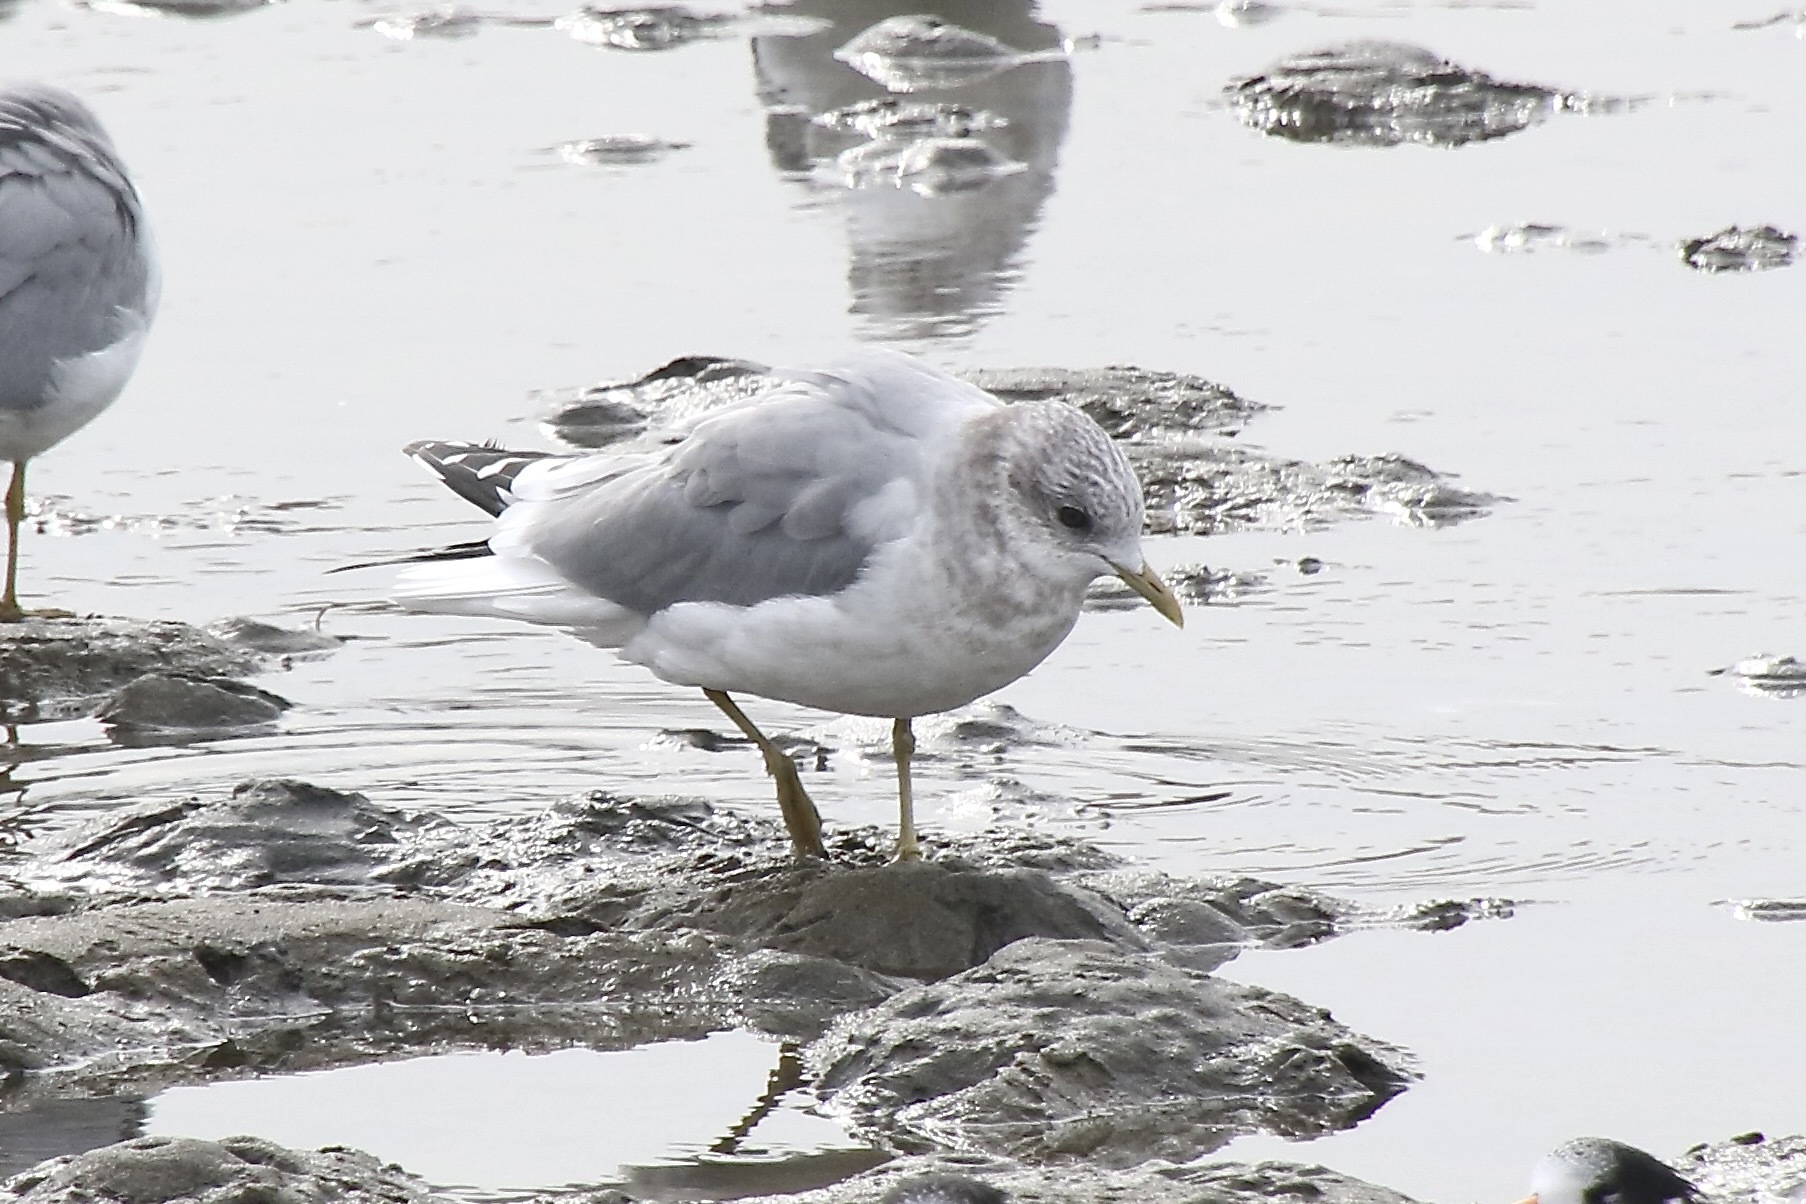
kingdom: Animalia
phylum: Chordata
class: Aves
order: Charadriiformes
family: Laridae
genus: Larus
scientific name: Larus brachyrhynchus
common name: Short-billed gull
